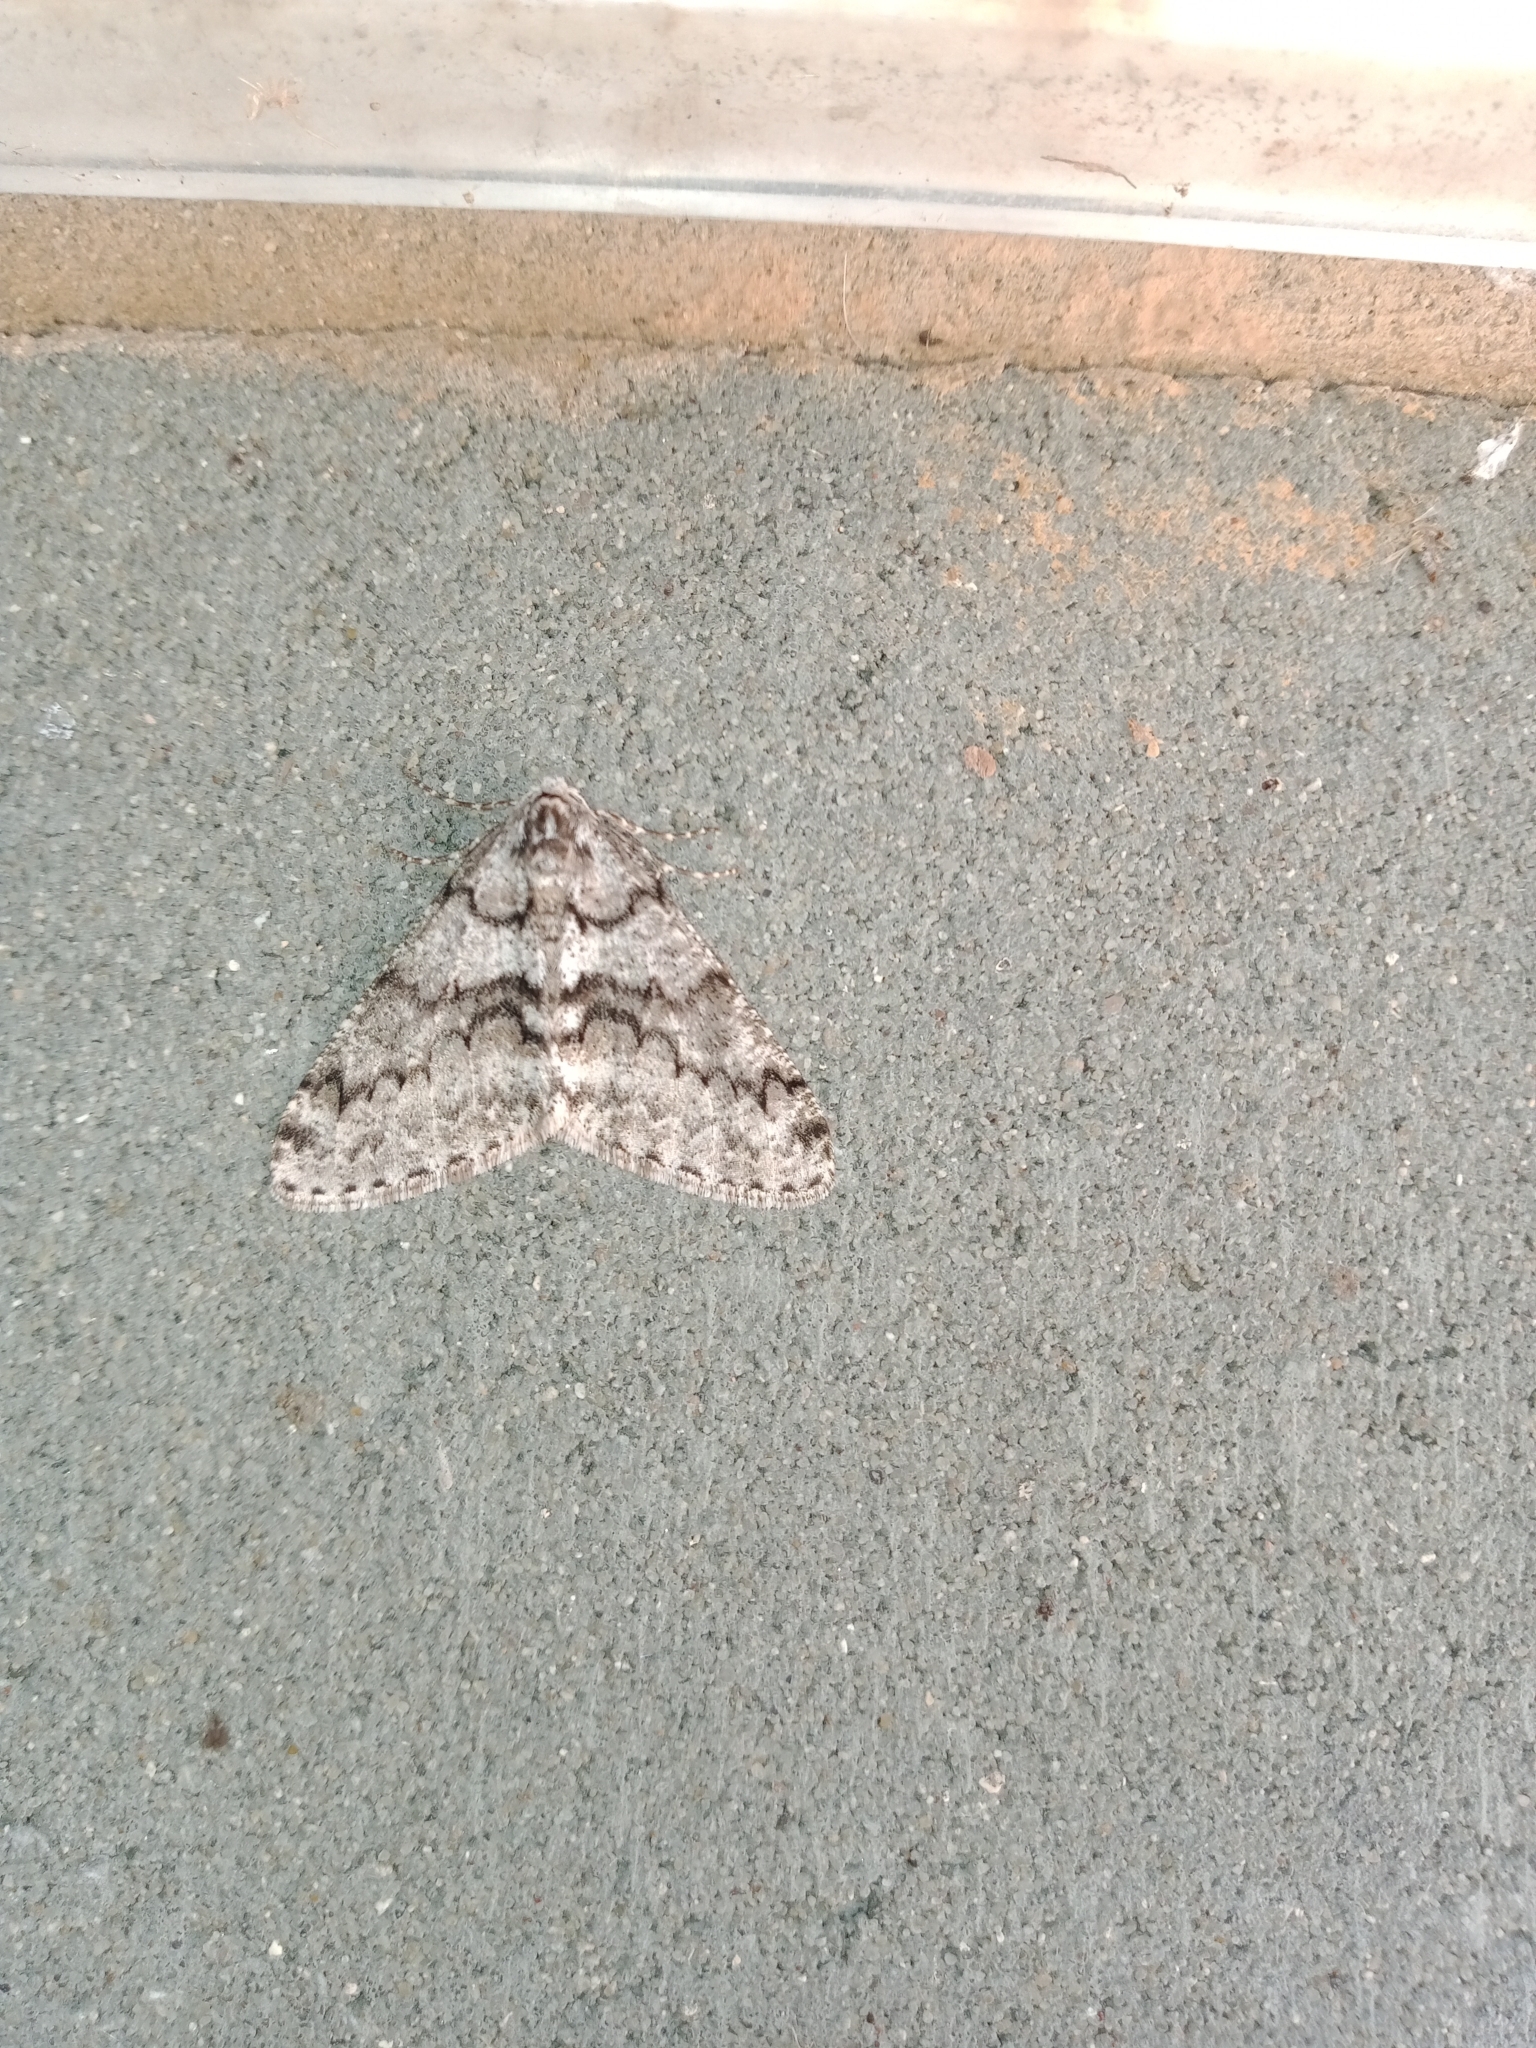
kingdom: Animalia
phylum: Arthropoda
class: Insecta
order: Lepidoptera
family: Geometridae
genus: Phigalia
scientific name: Phigalia denticulata
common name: Toothed phigalia
